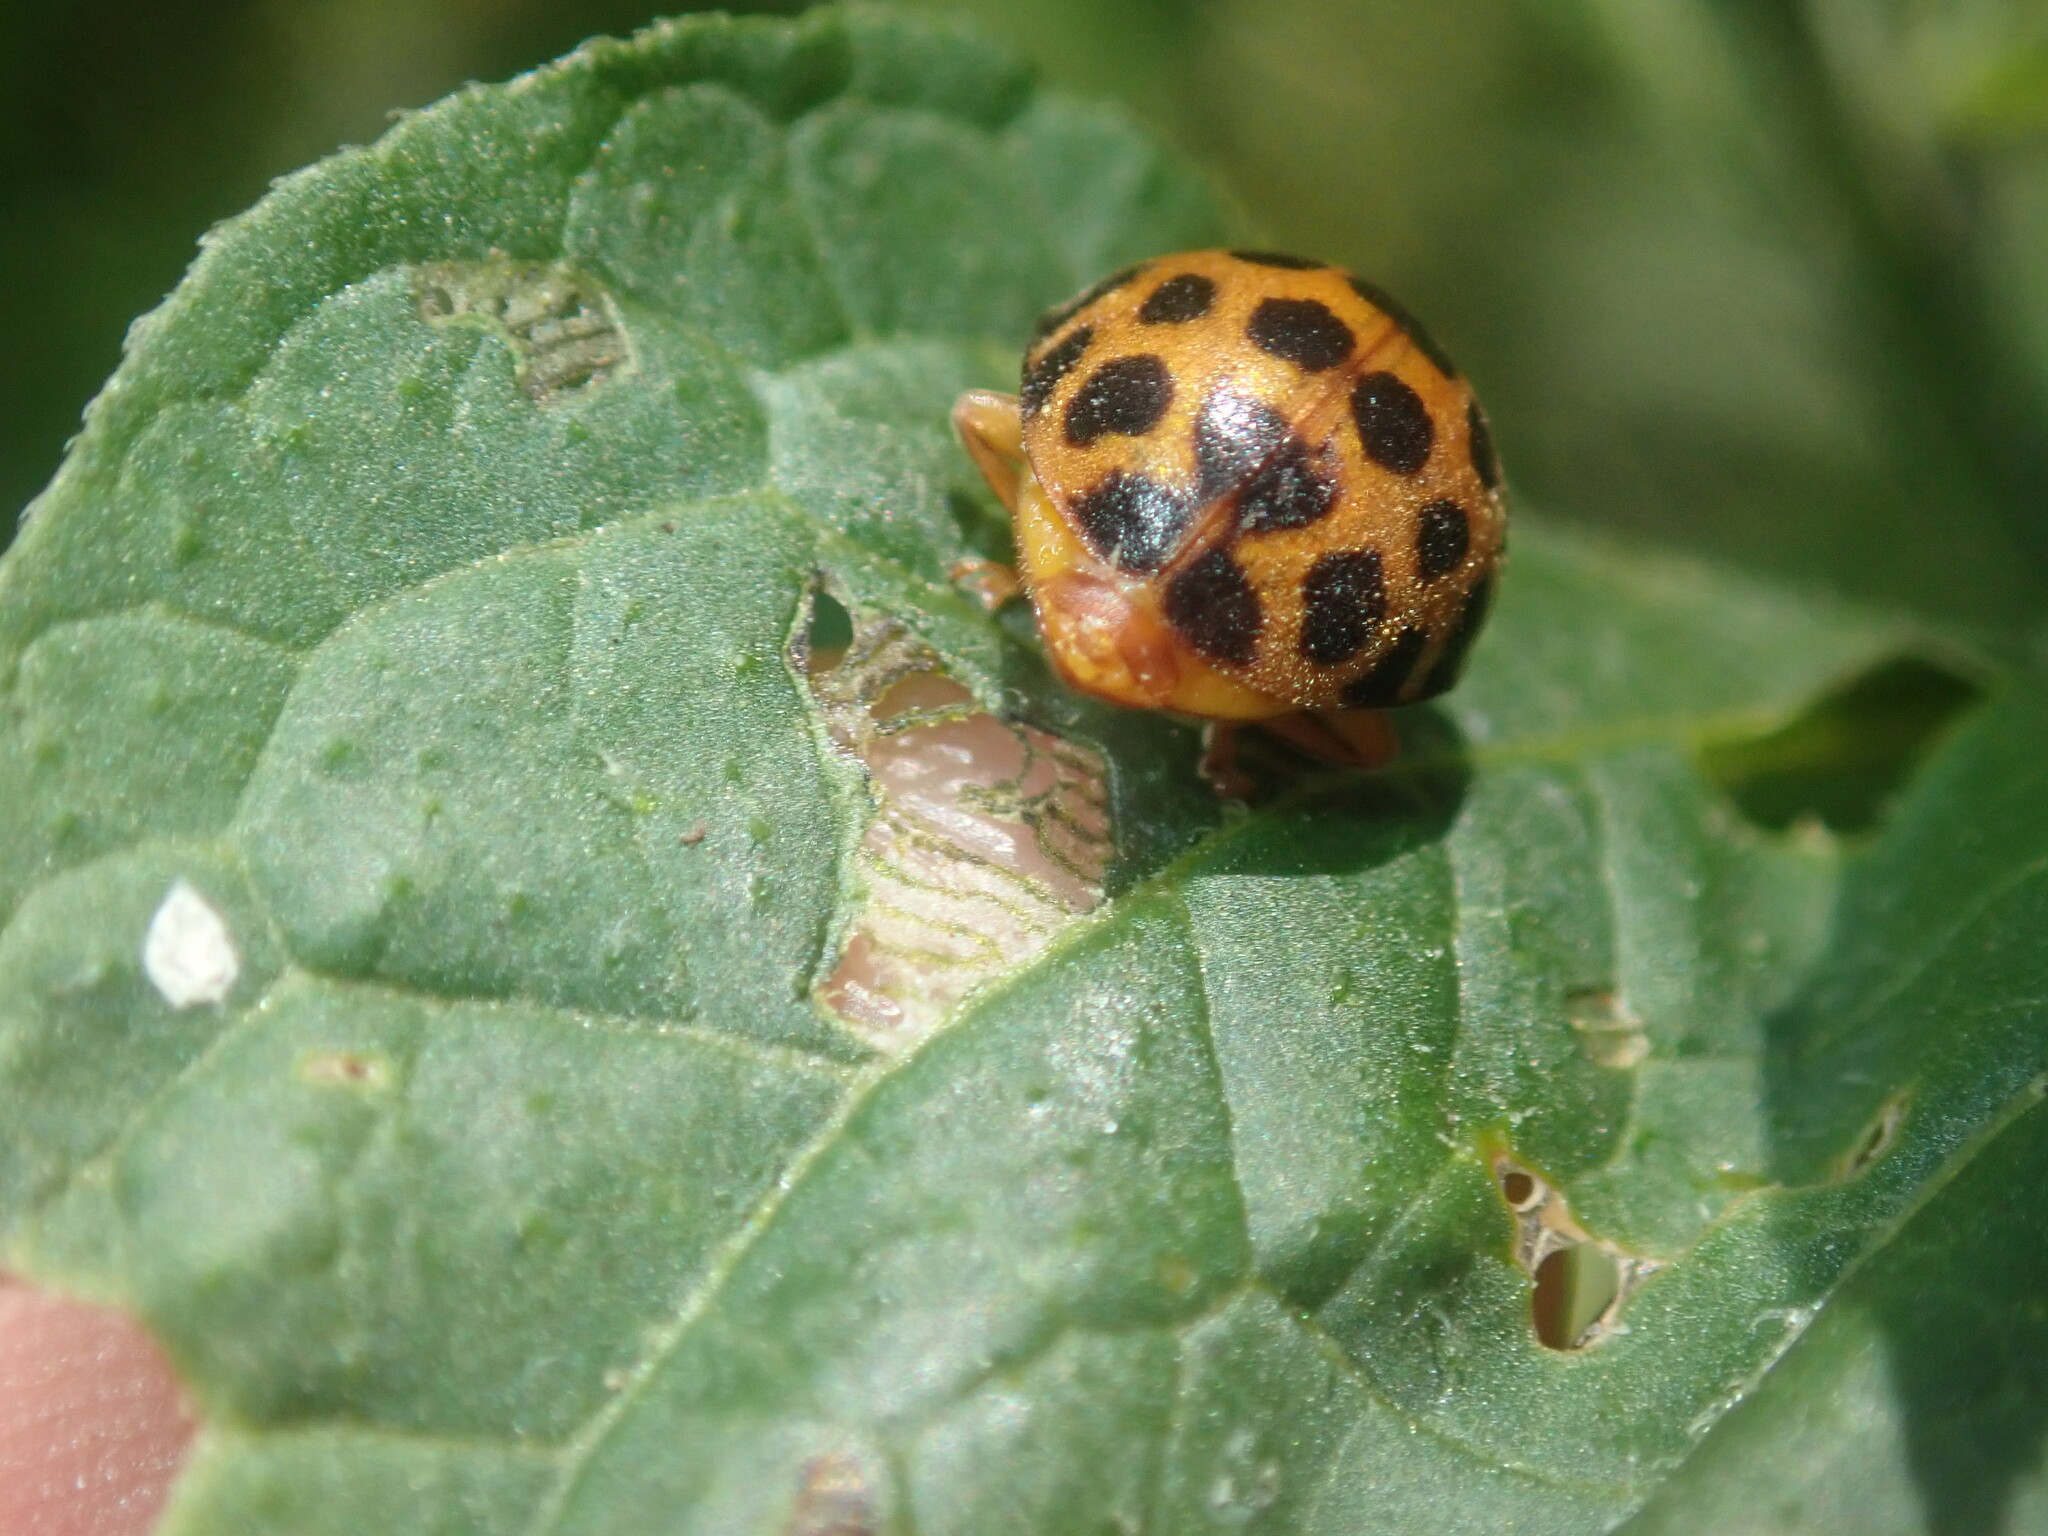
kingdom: Animalia
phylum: Arthropoda
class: Insecta
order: Coleoptera
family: Coccinellidae
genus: Henosepilachna
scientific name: Henosepilachna vigintioctopunctata
